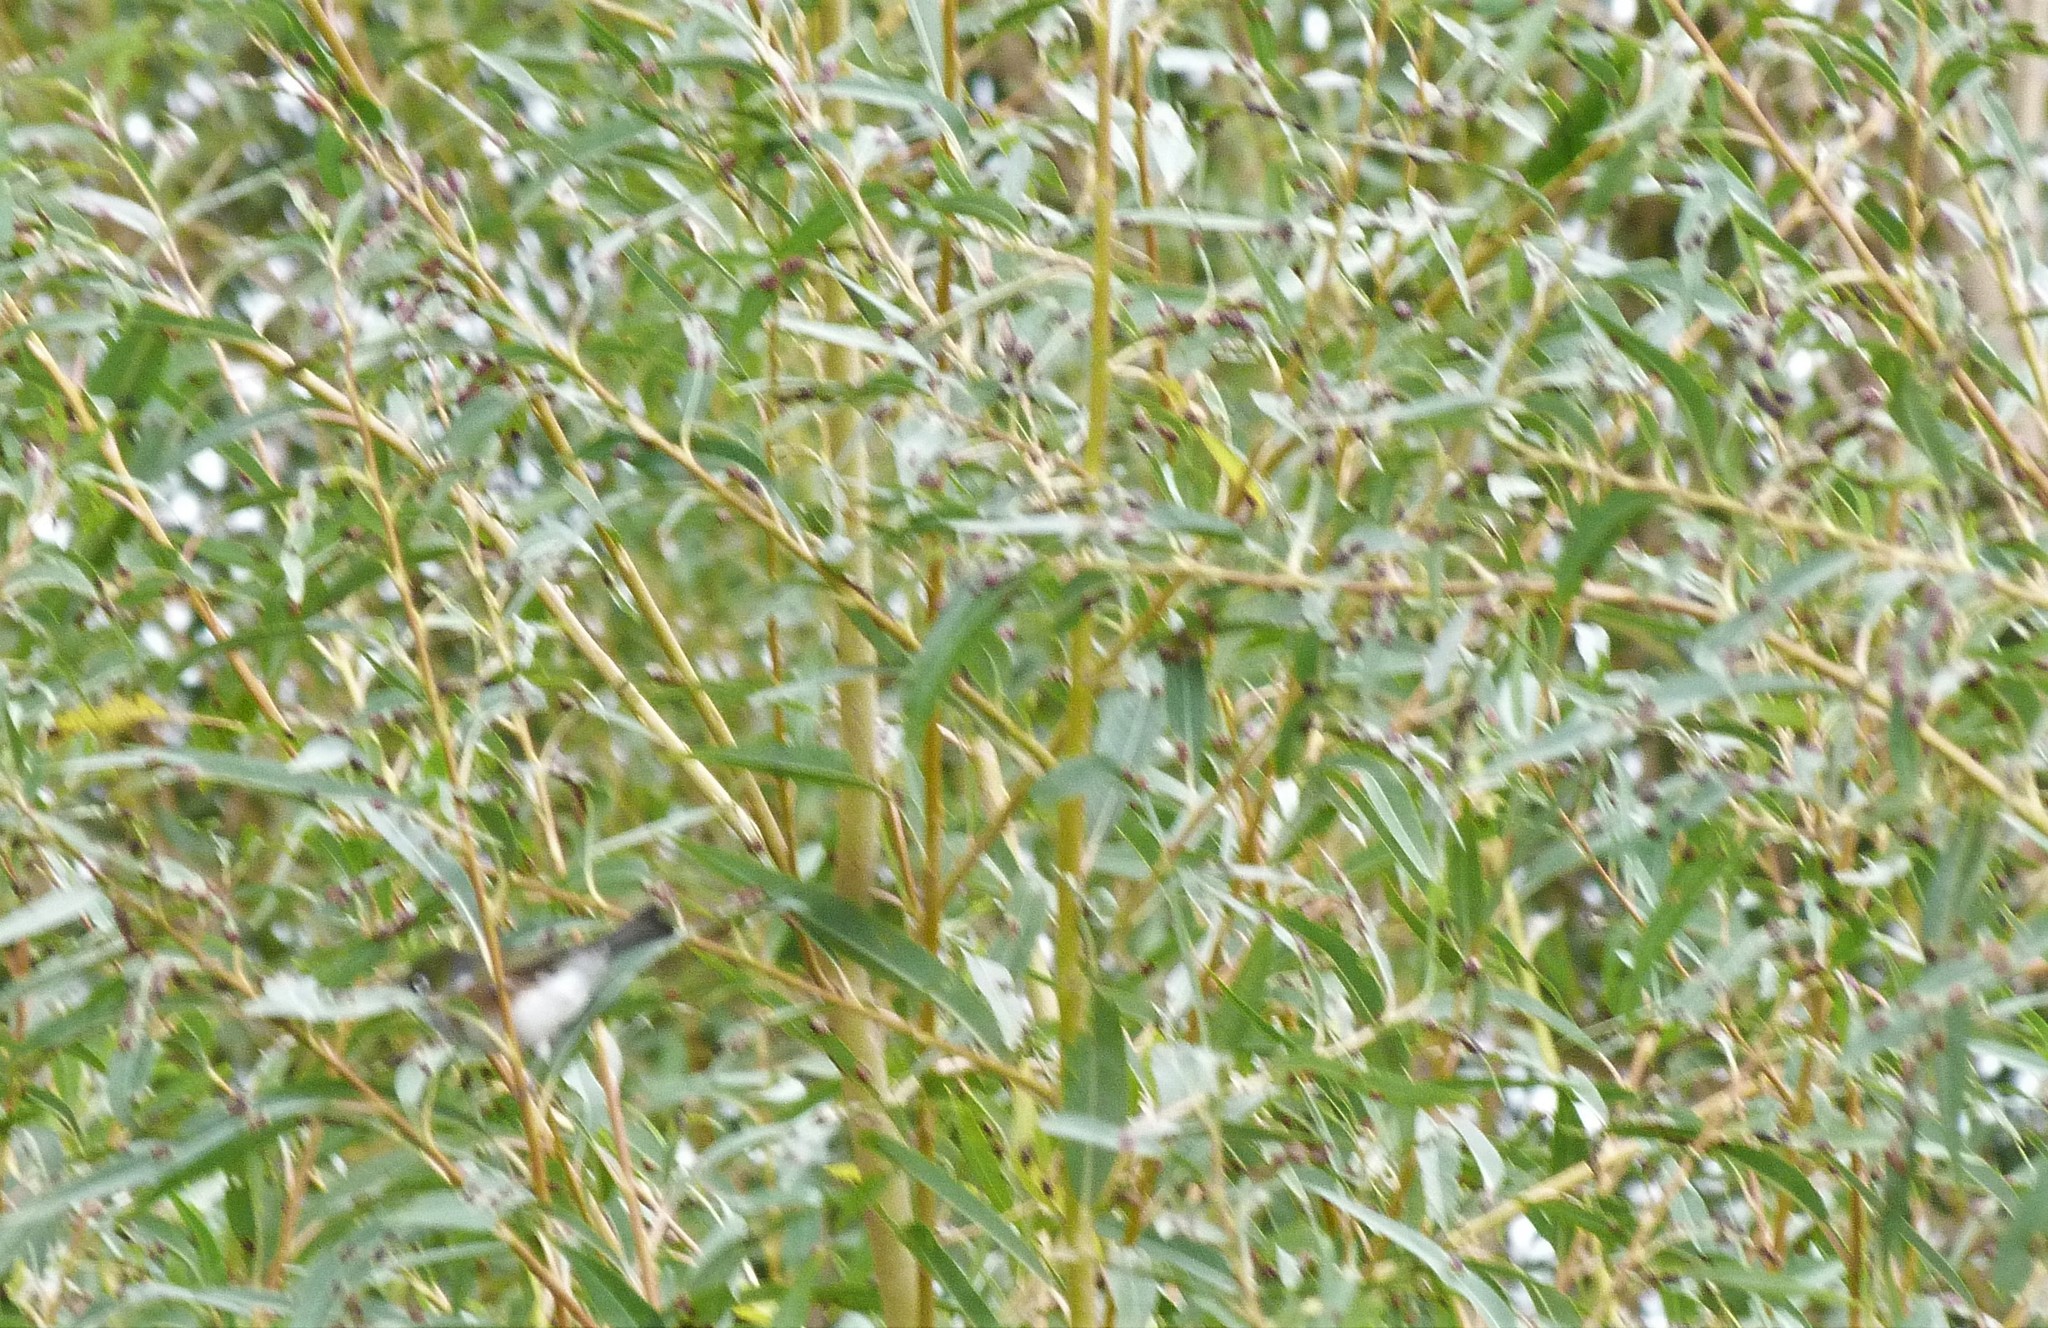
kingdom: Animalia
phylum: Chordata
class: Aves
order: Passeriformes
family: Zosteropidae
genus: Zosterops
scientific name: Zosterops lateralis
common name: Silvereye
